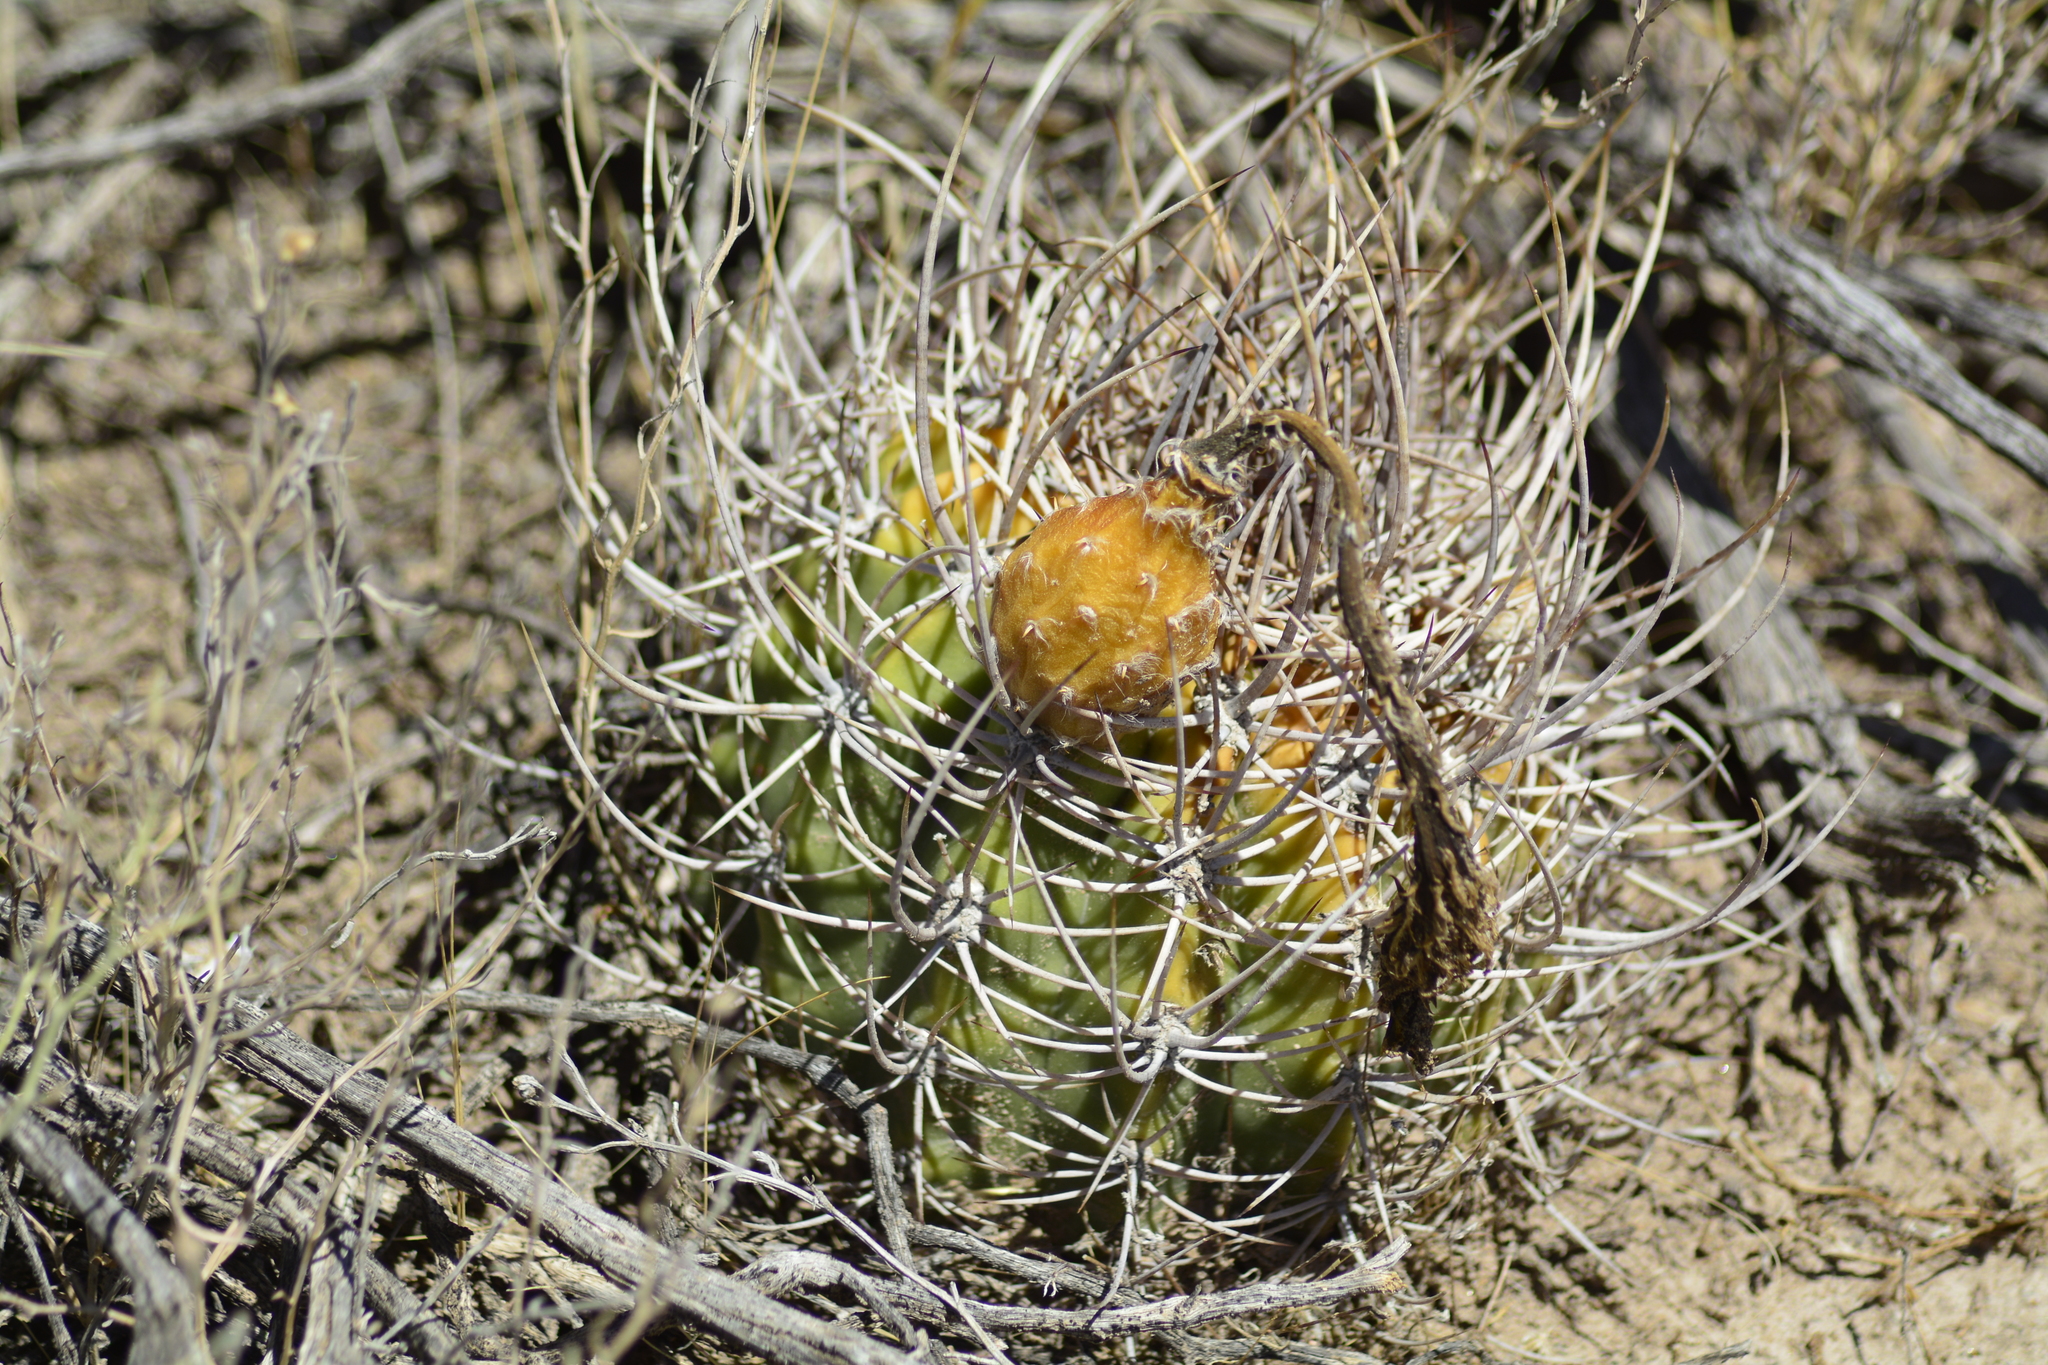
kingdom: Plantae
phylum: Tracheophyta
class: Magnoliopsida
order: Caryophyllales
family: Cactaceae
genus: Acanthocalycium
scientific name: Acanthocalycium leucanthum
